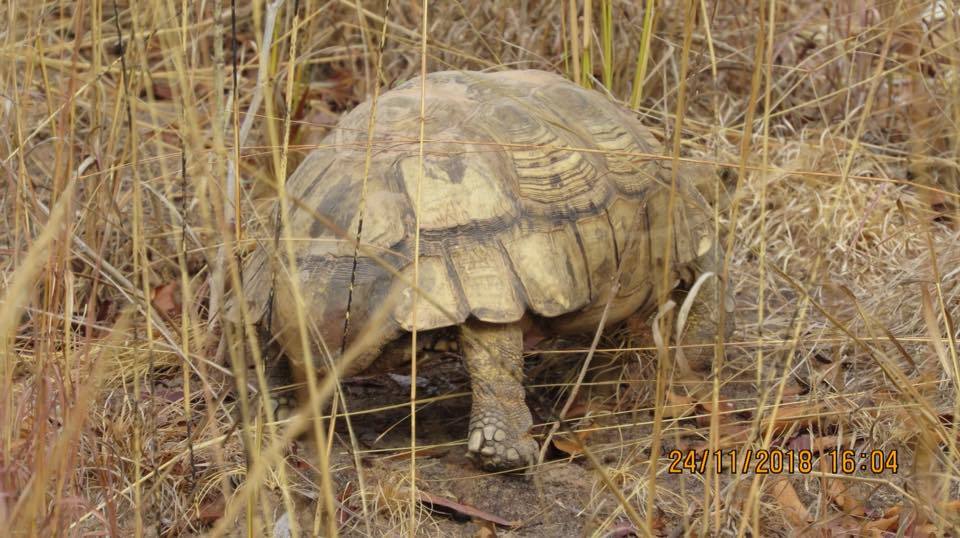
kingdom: Animalia
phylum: Chordata
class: Testudines
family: Testudinidae
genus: Stigmochelys
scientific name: Stigmochelys pardalis
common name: Leopard tortoise
